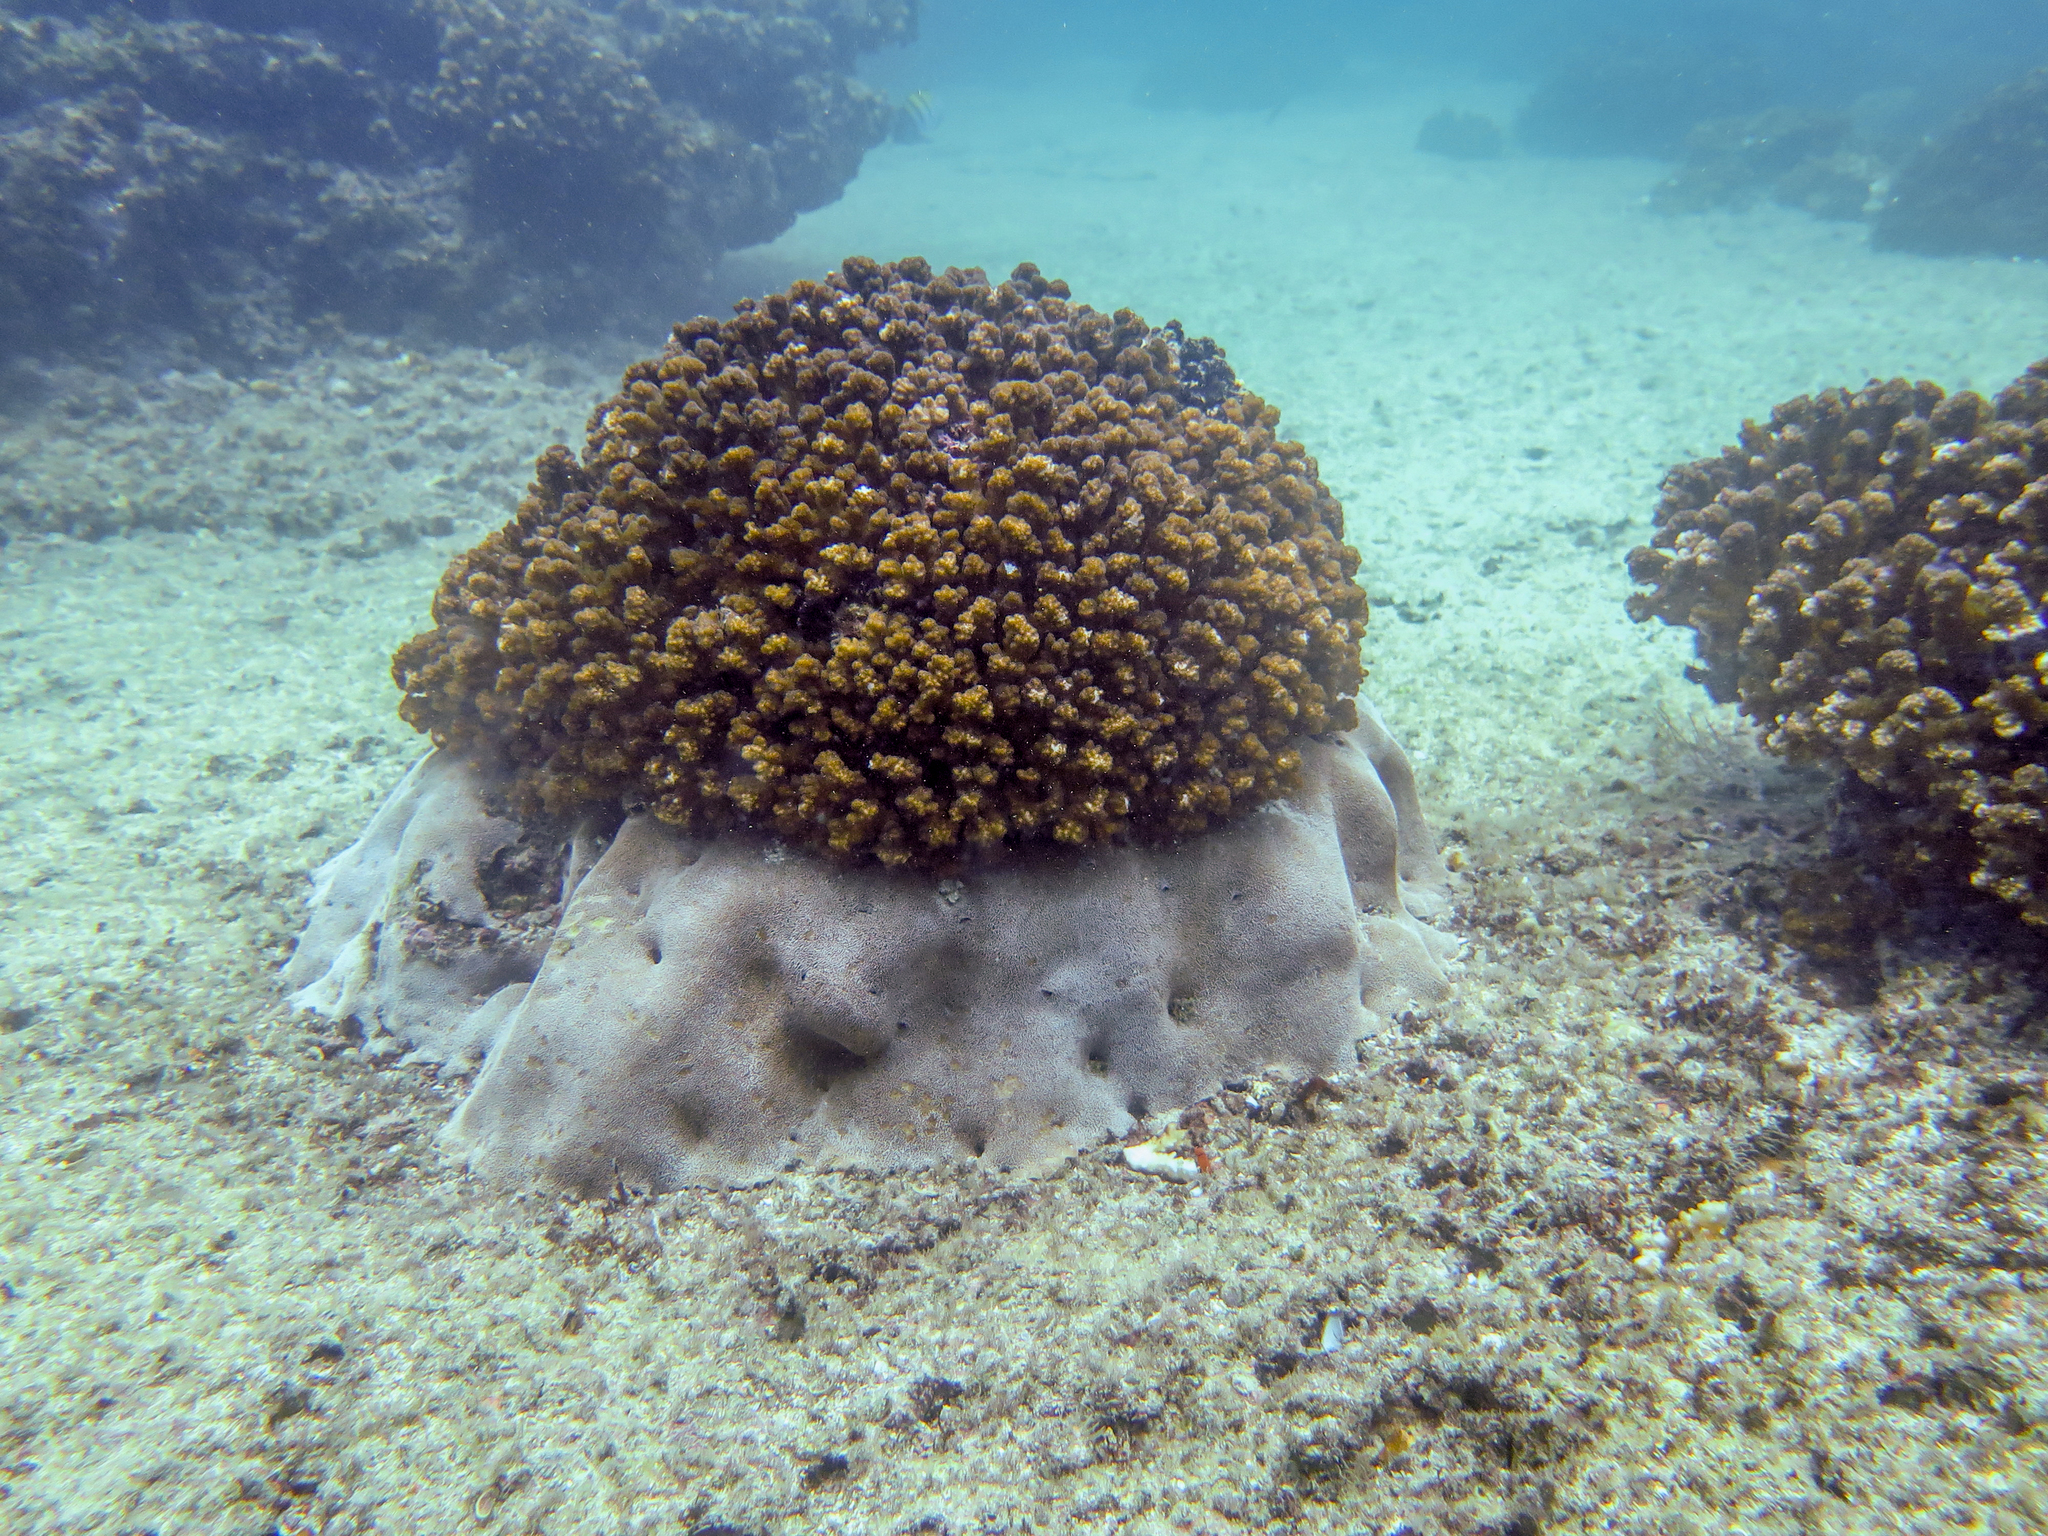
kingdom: Animalia
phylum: Cnidaria
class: Anthozoa
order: Scleractinia
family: Agariciidae
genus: Pavona
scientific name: Pavona gigantea
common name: Leaf coral
